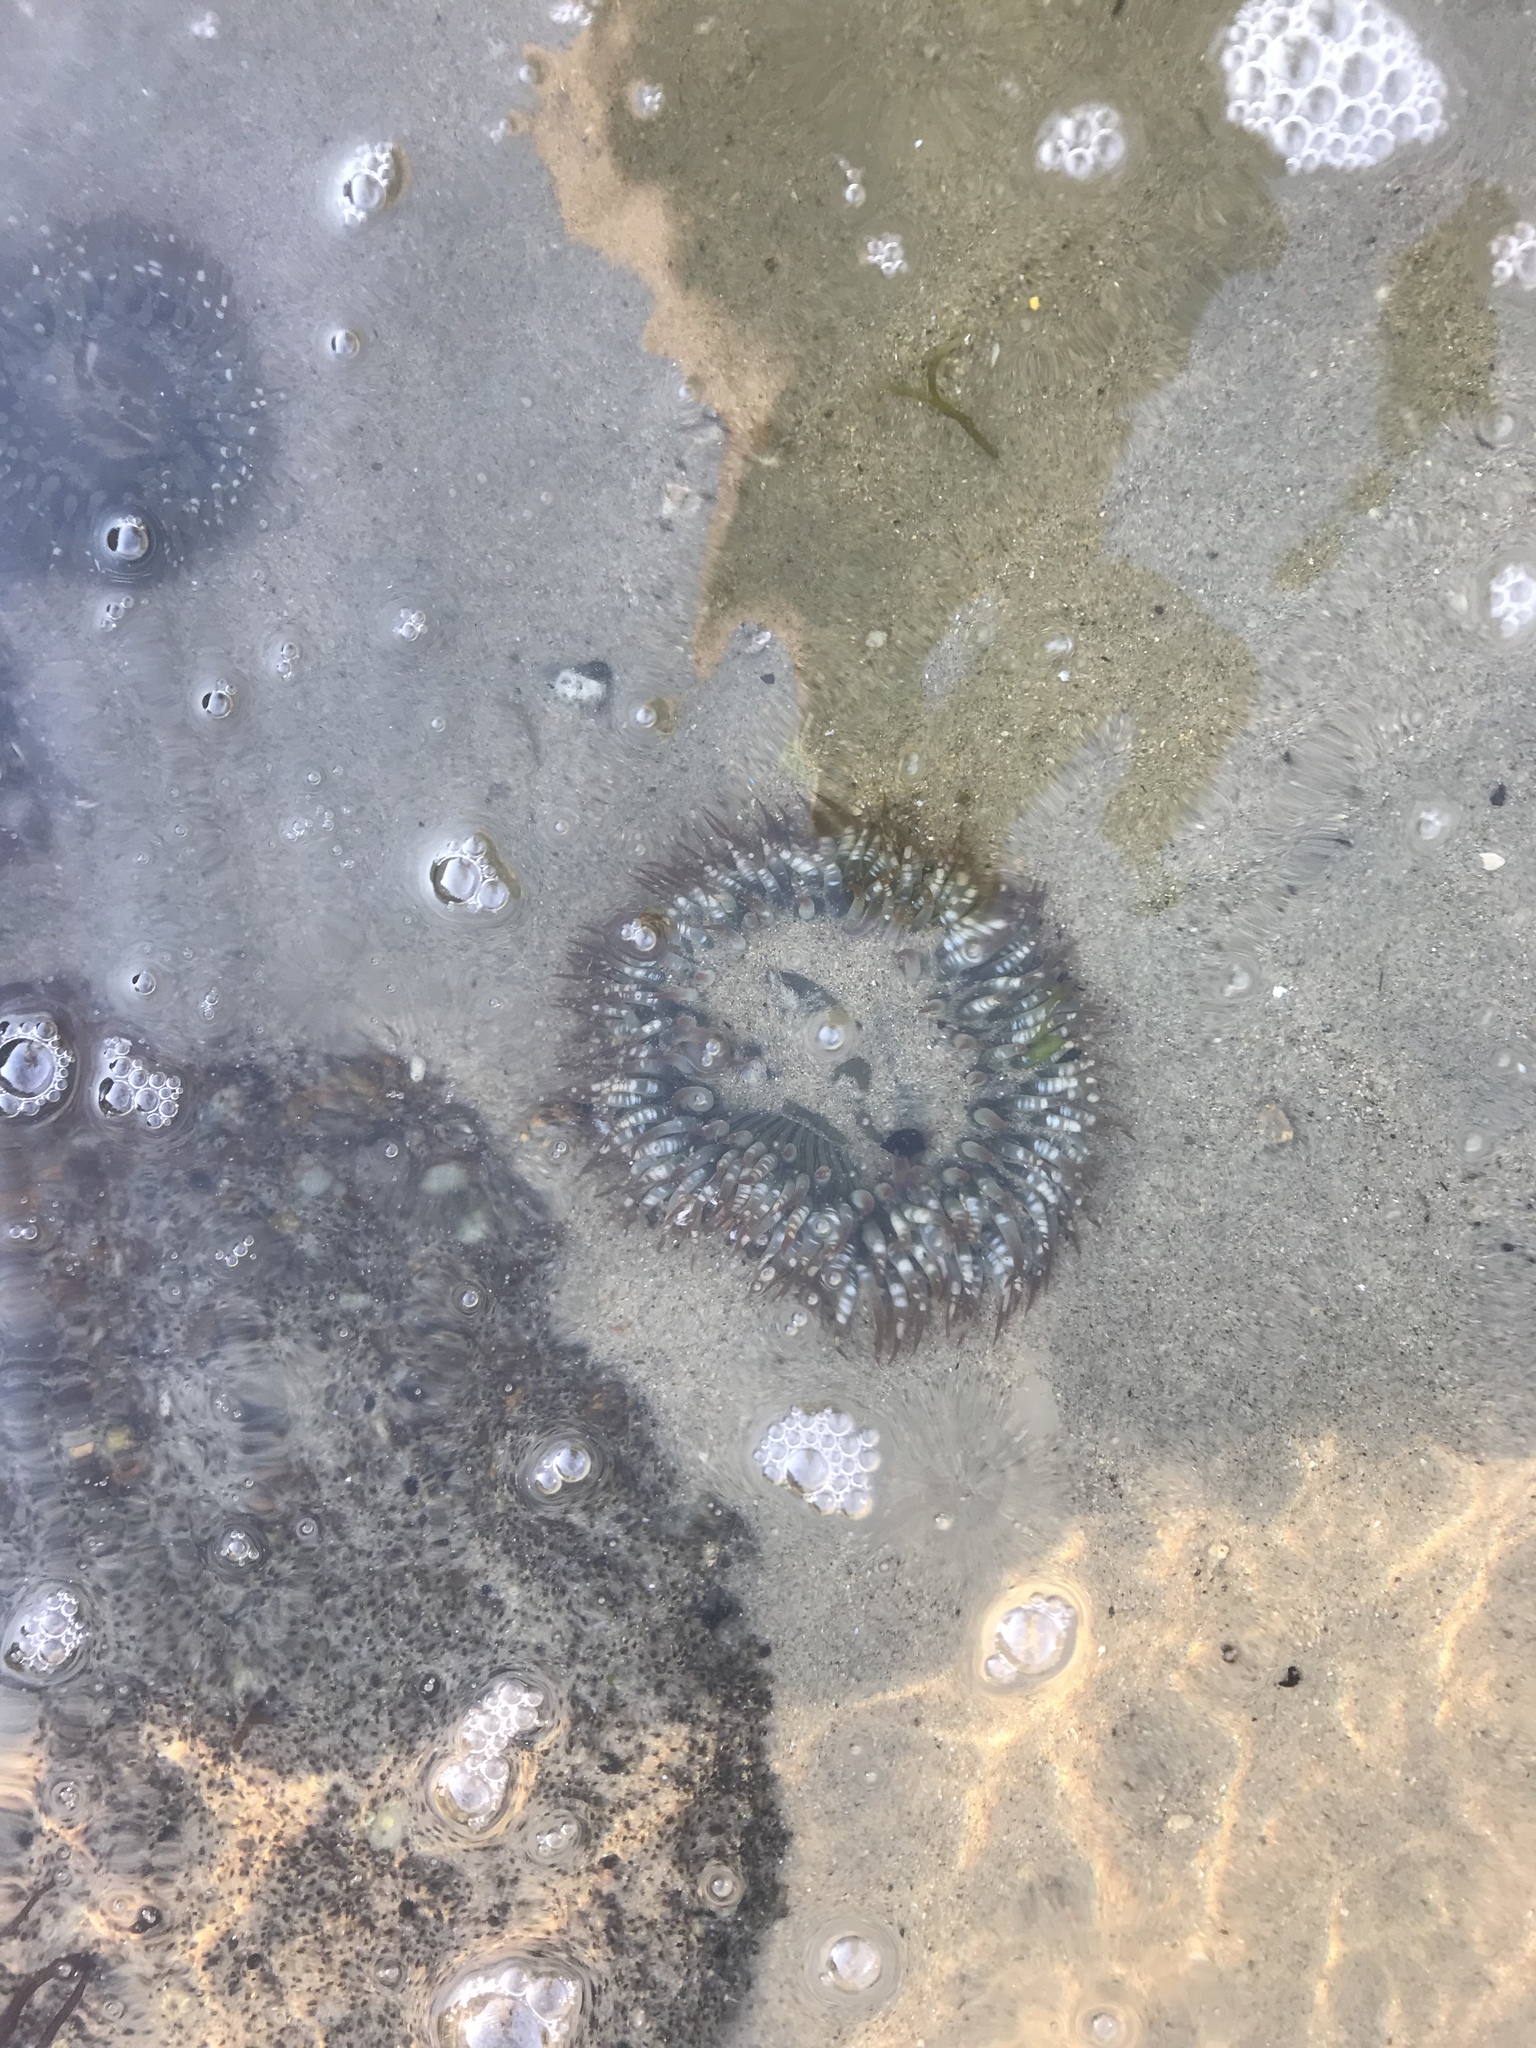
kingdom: Animalia
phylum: Cnidaria
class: Anthozoa
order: Actiniaria
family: Actiniidae
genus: Anthopleura
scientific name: Anthopleura sola
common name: Sun anemone
